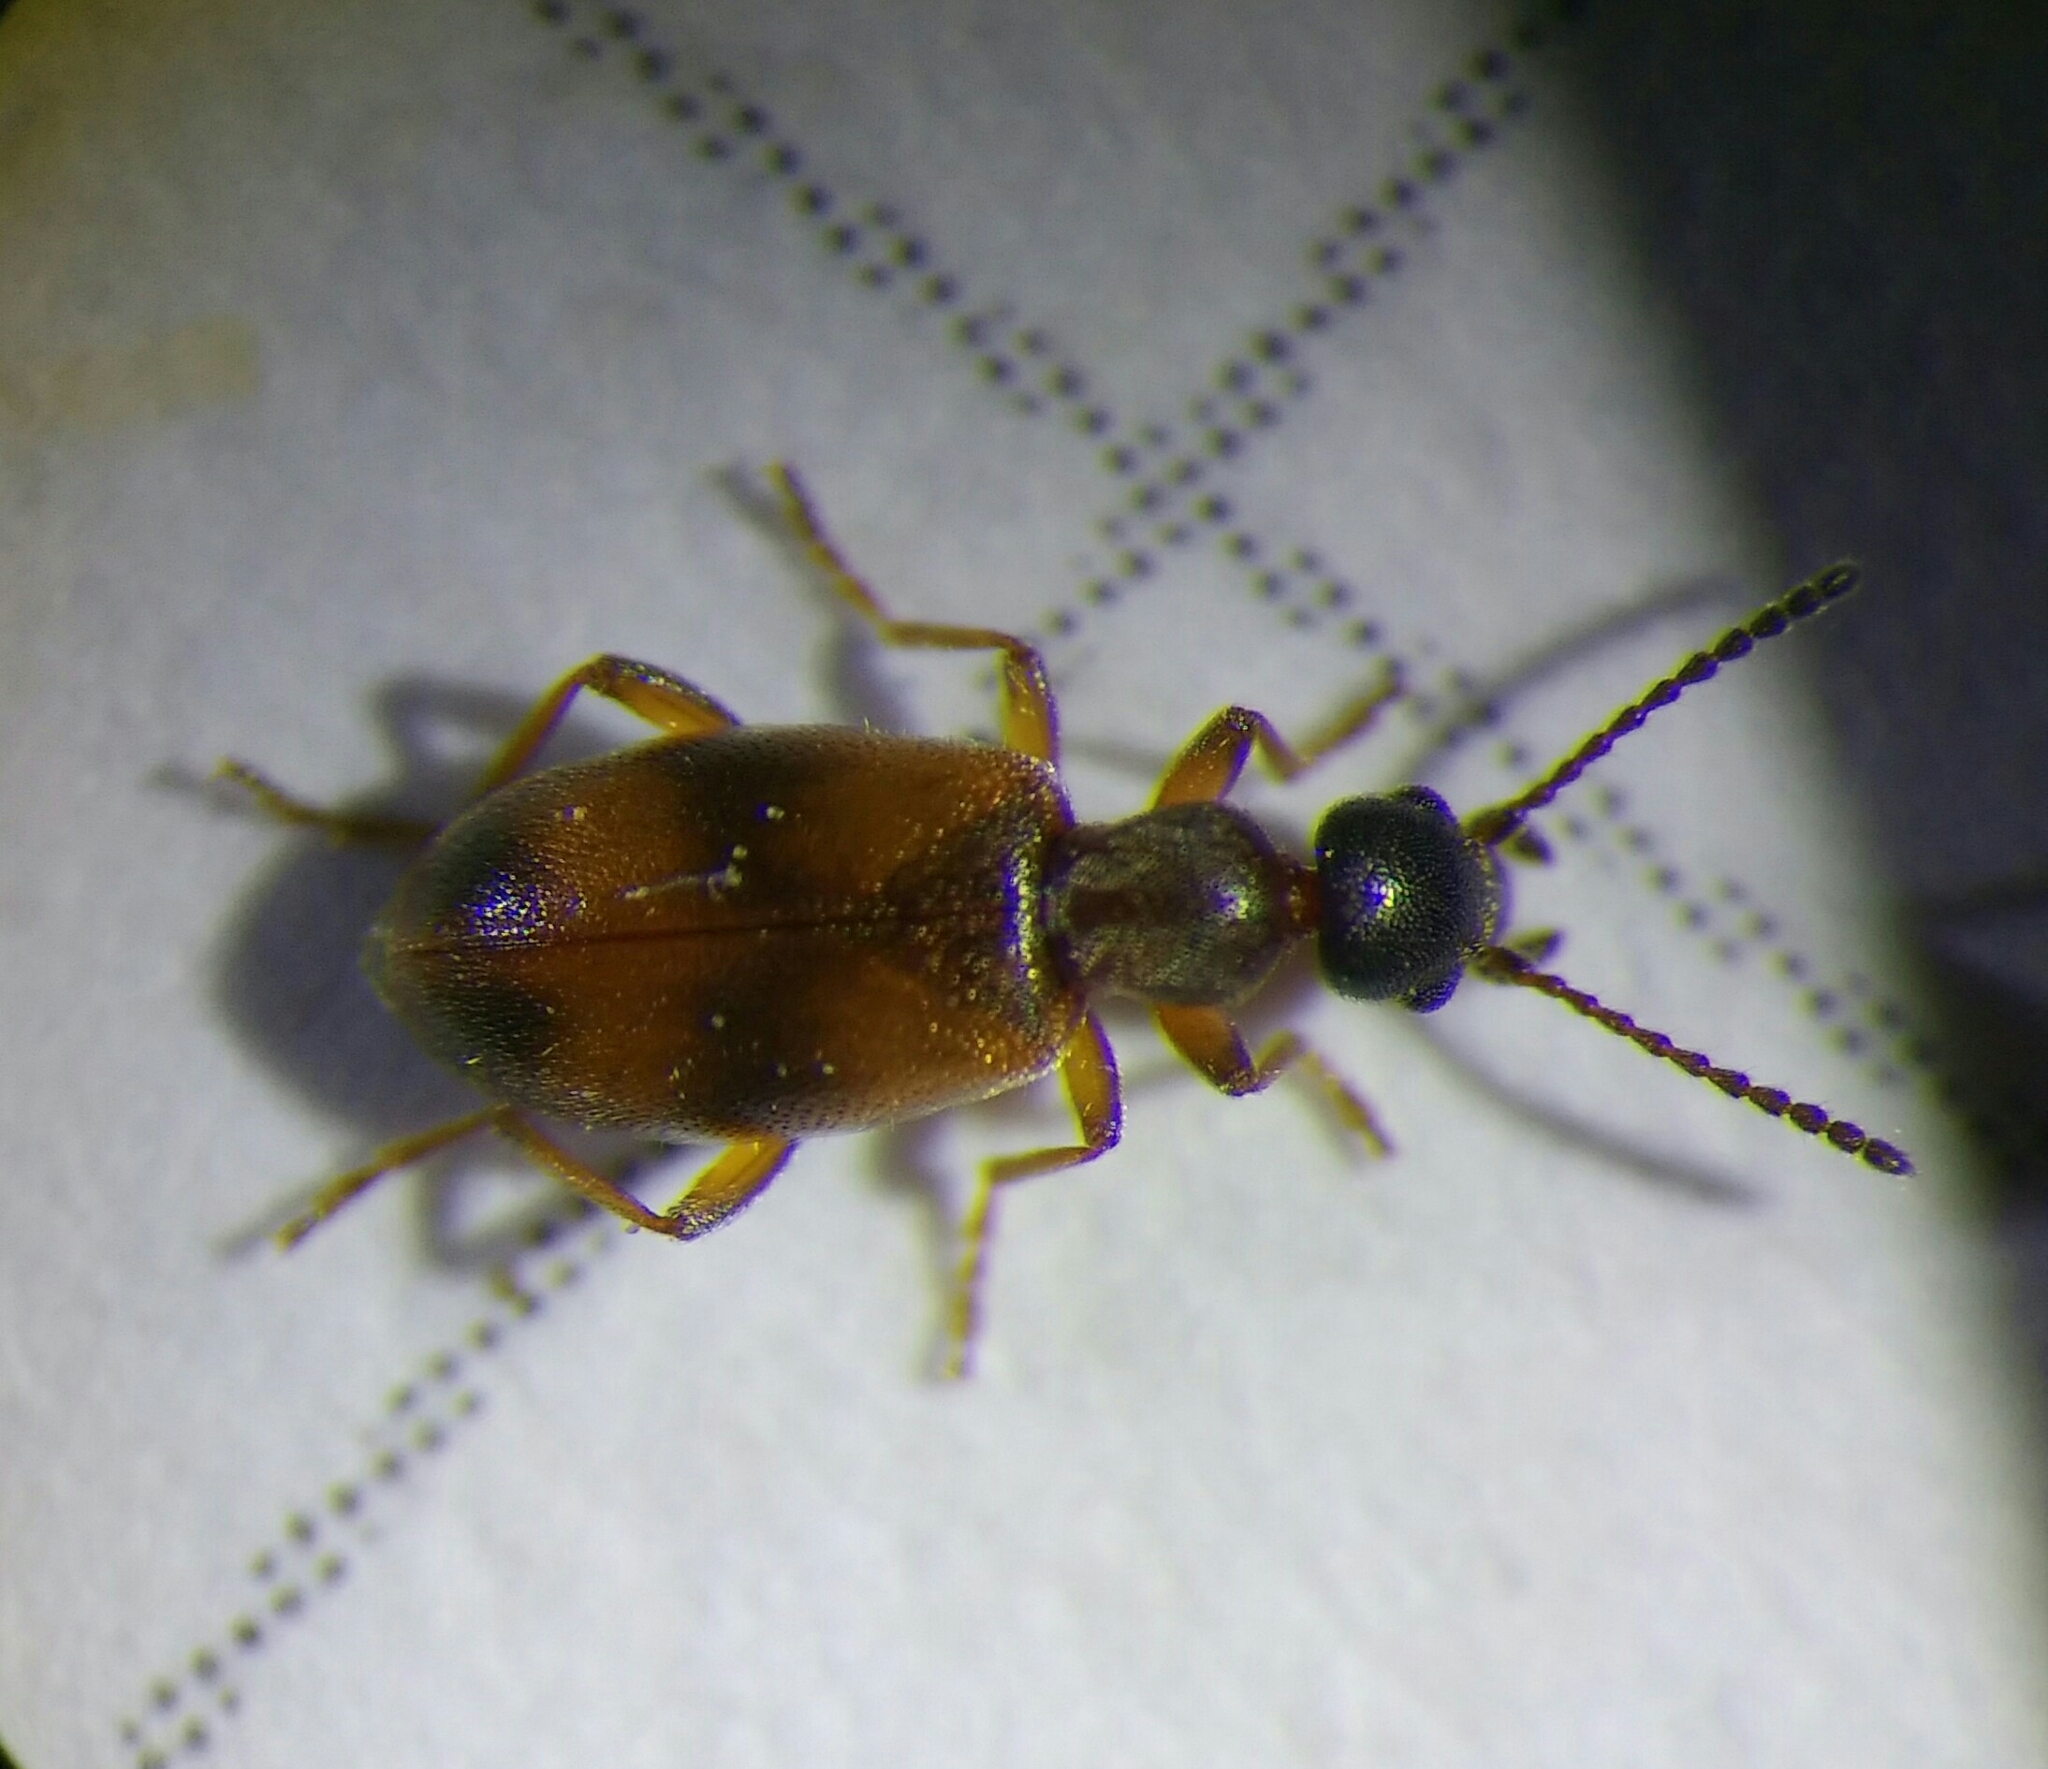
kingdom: Animalia
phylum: Arthropoda
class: Insecta
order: Coleoptera
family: Anthicidae
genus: Anthicus
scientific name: Anthicus antherinus
